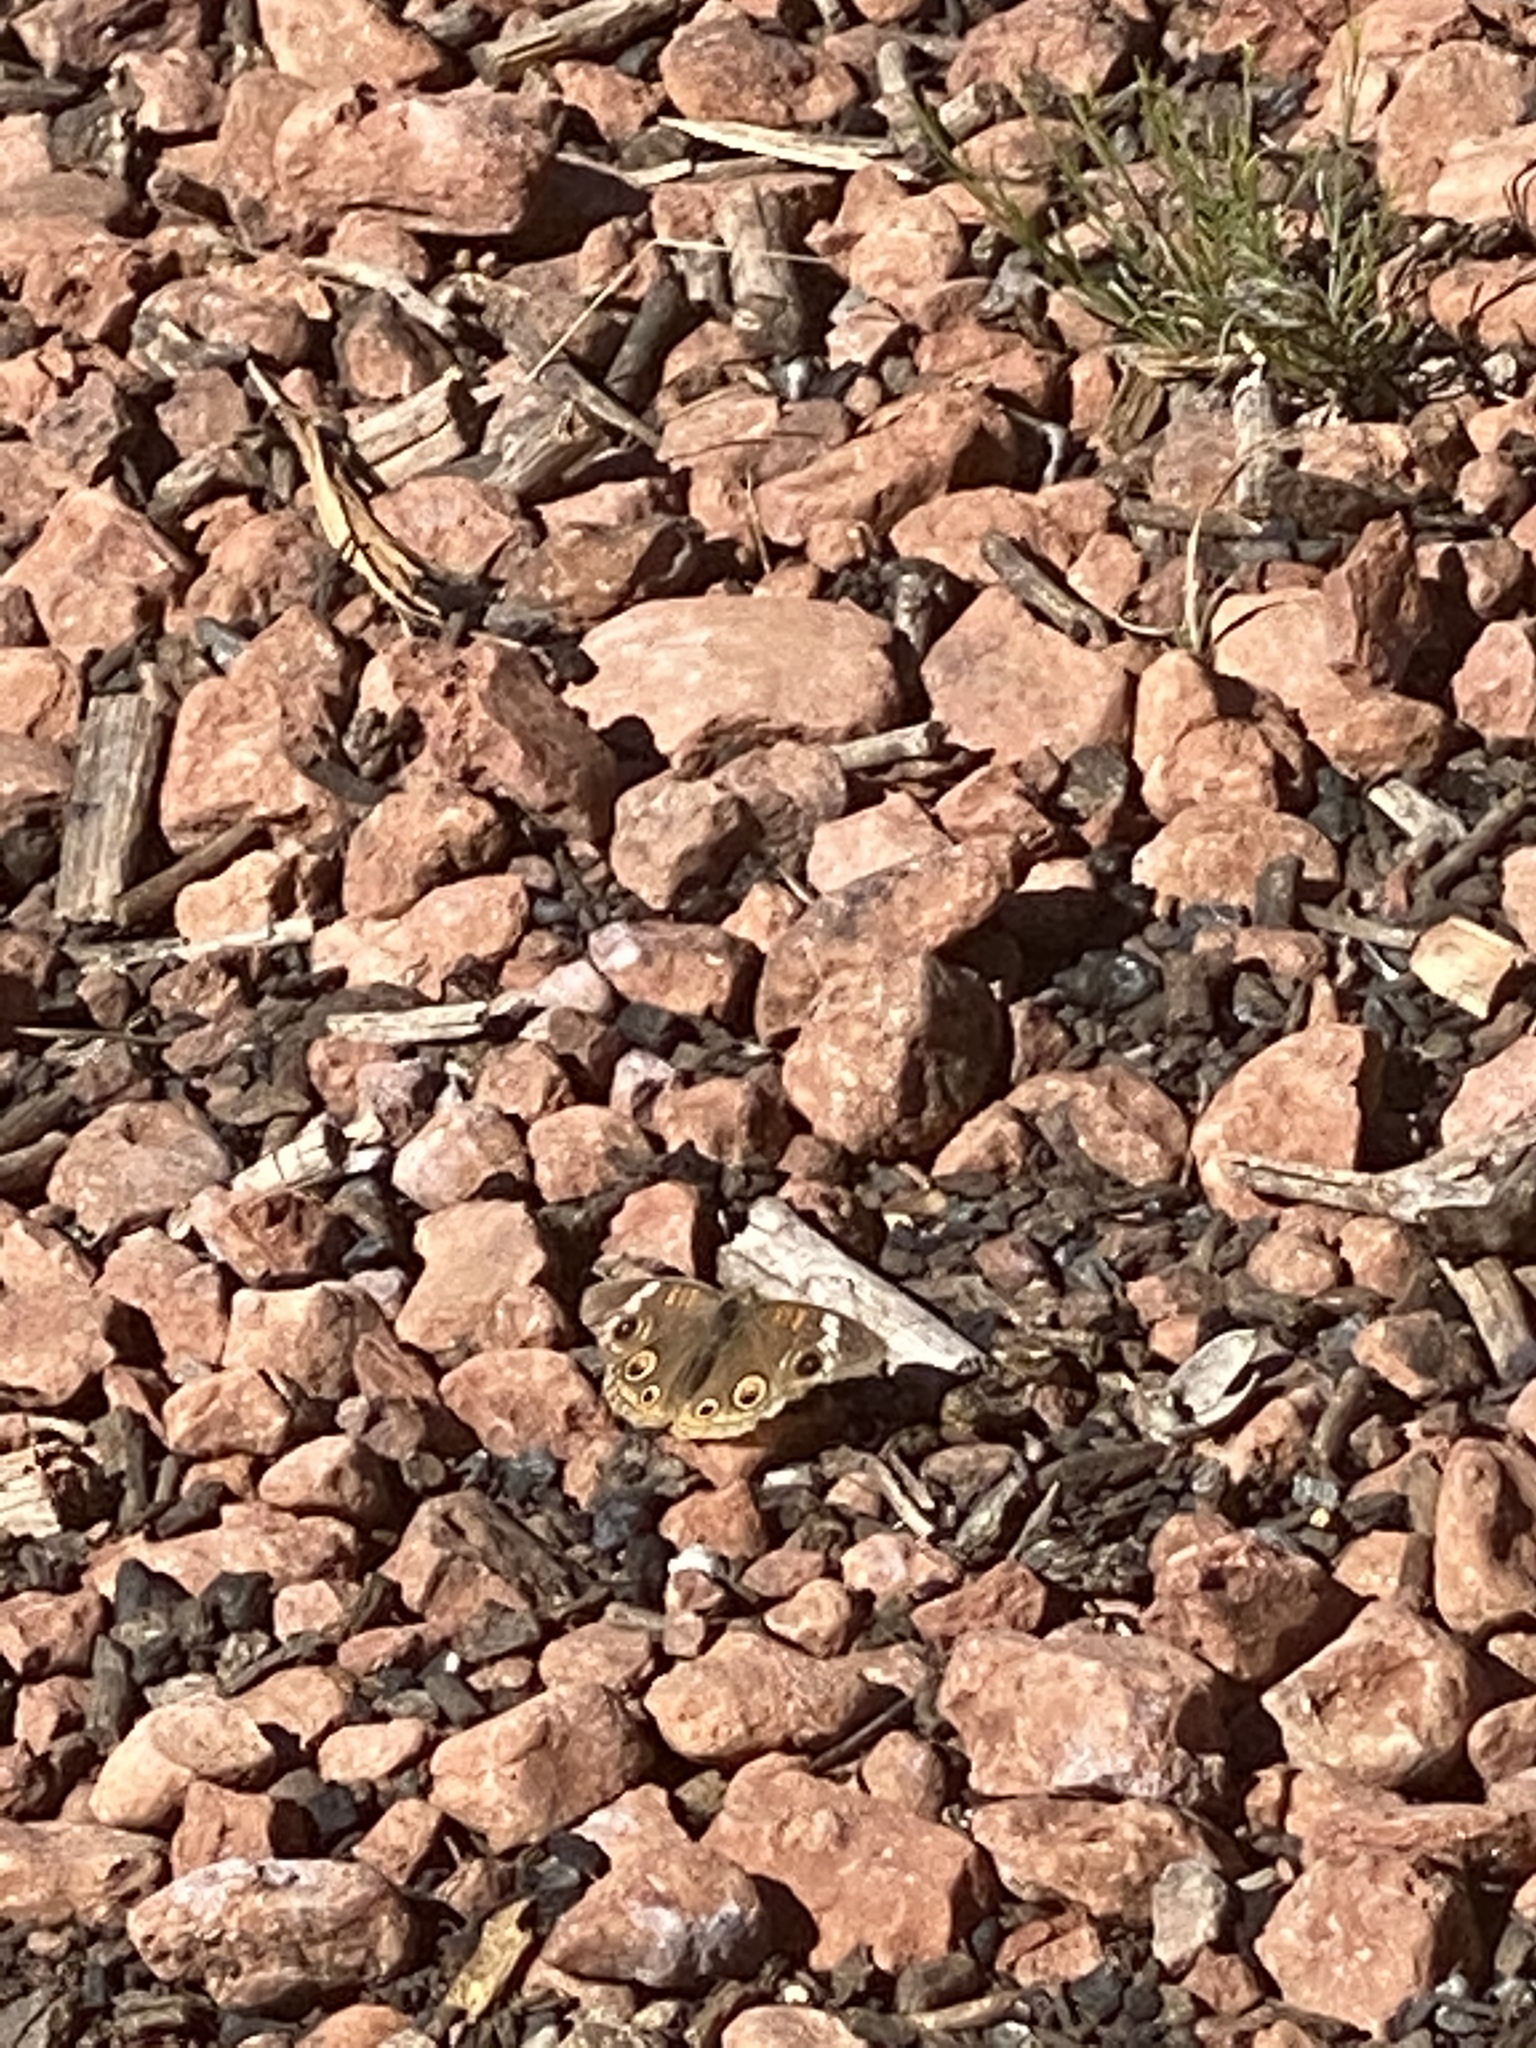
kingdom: Animalia
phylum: Arthropoda
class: Insecta
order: Lepidoptera
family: Nymphalidae
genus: Junonia
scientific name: Junonia grisea
